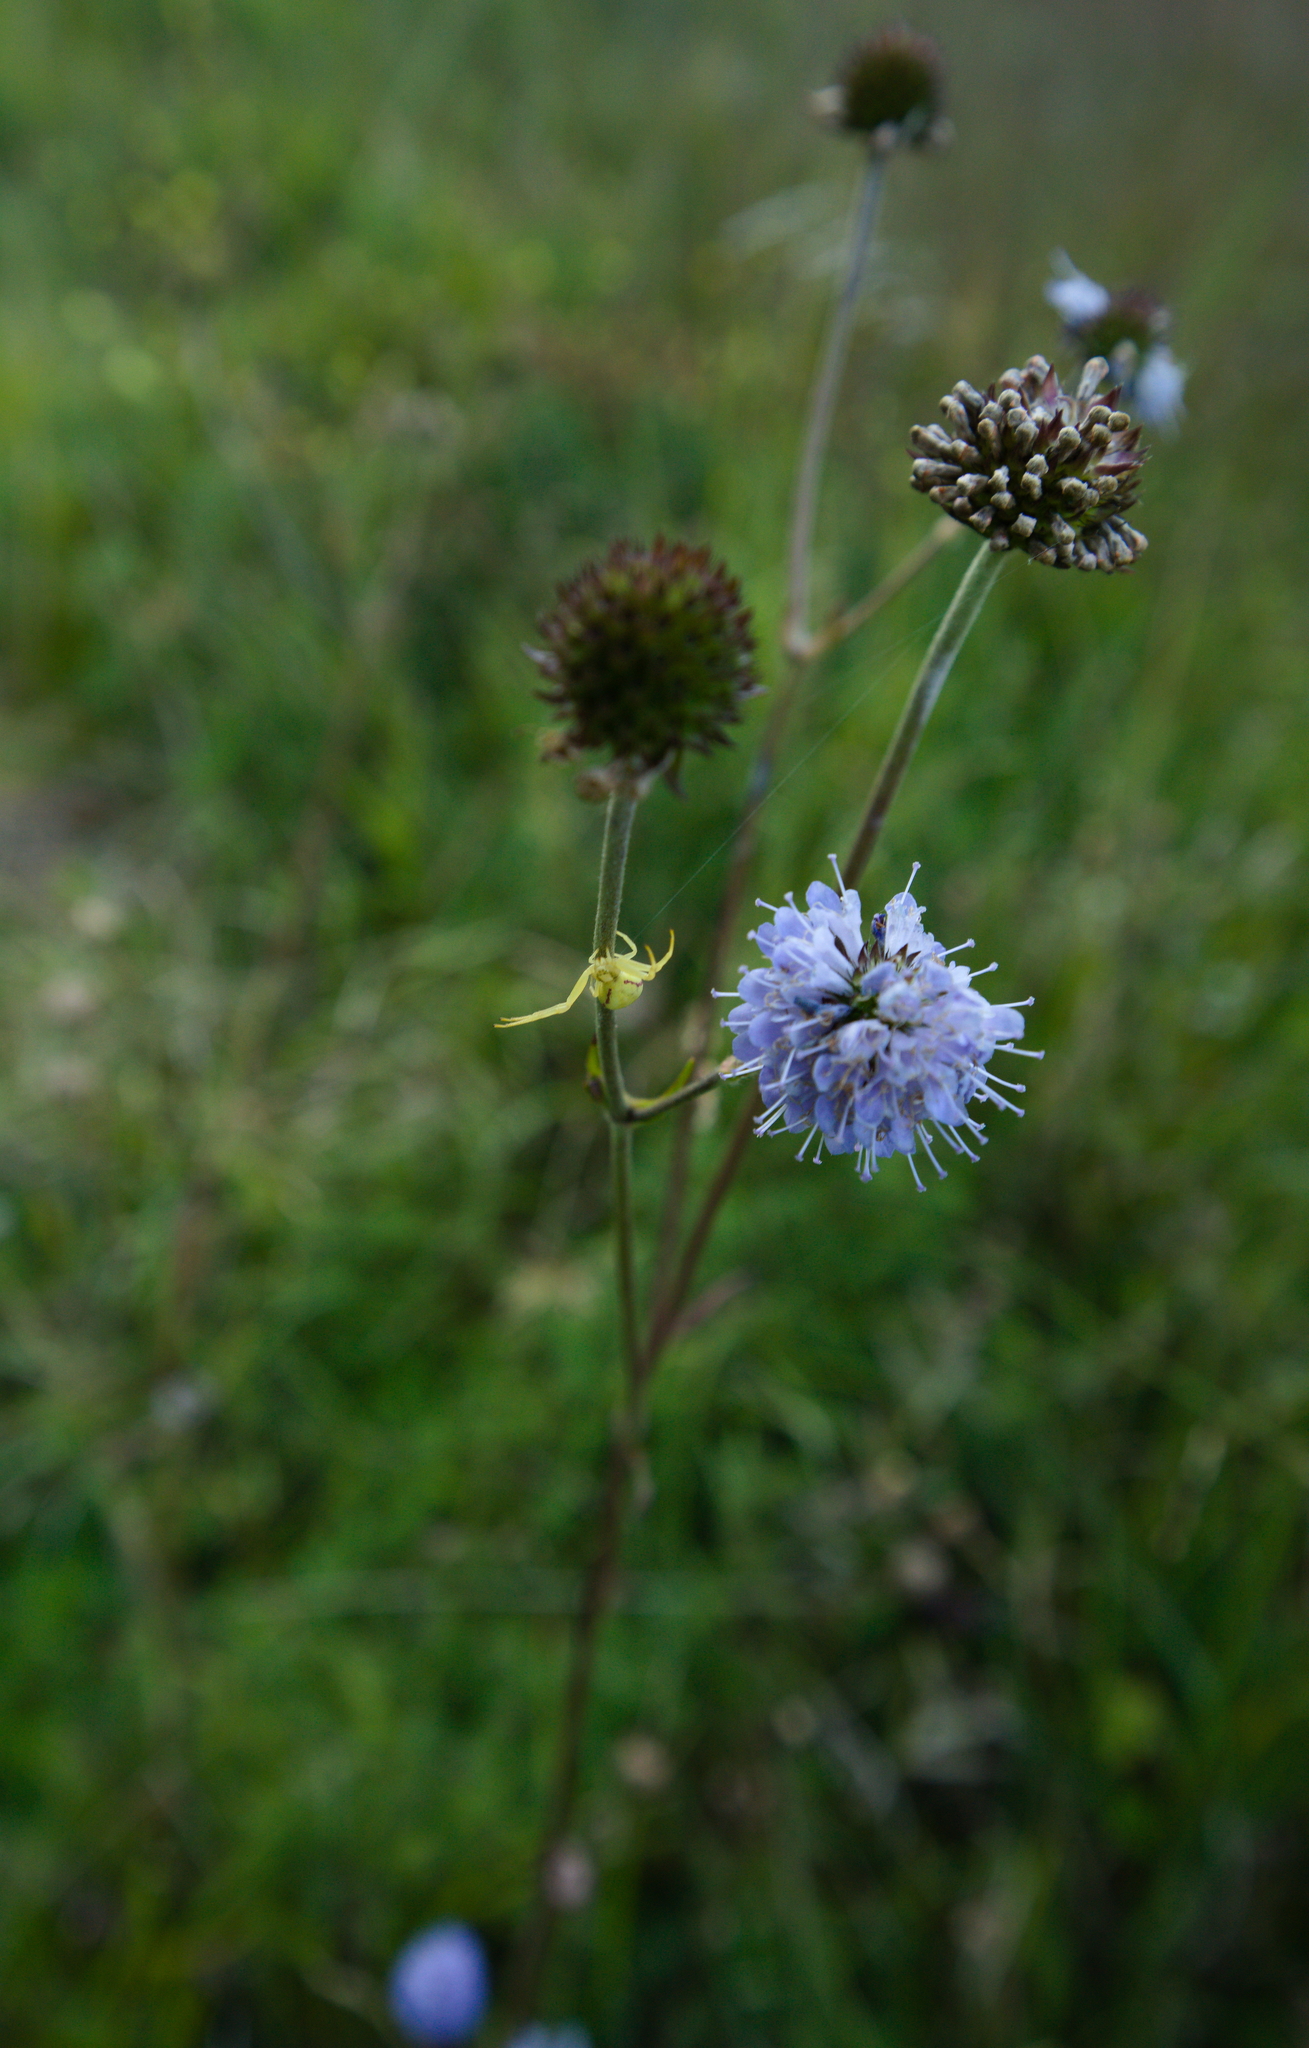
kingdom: Animalia
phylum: Arthropoda
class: Arachnida
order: Araneae
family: Thomisidae
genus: Misumena
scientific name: Misumena vatia
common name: Goldenrod crab spider
